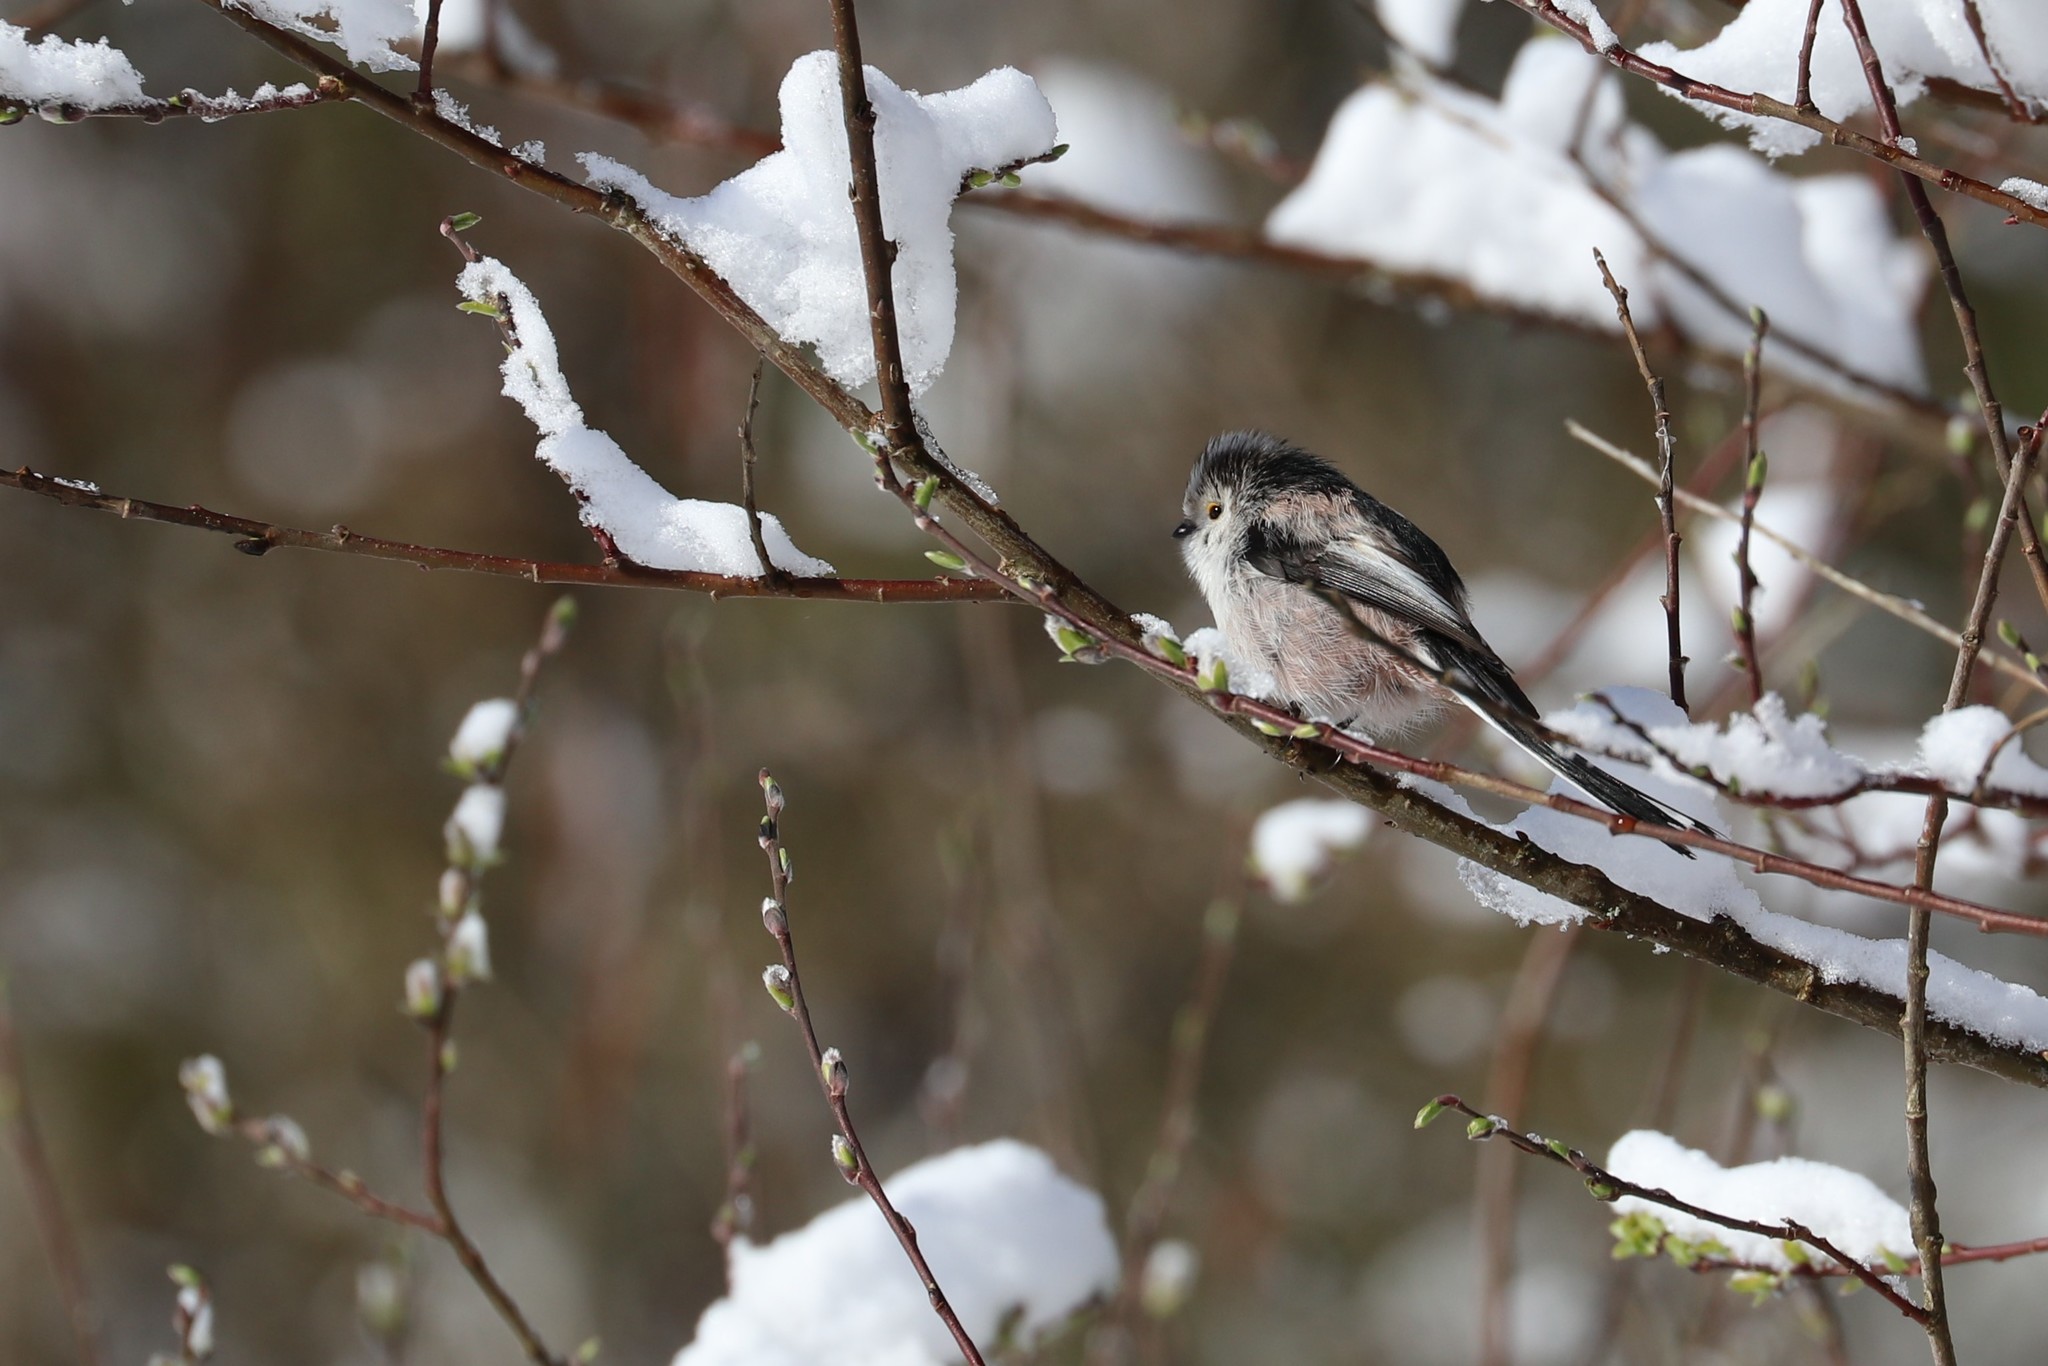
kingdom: Animalia
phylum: Chordata
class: Aves
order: Passeriformes
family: Aegithalidae
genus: Aegithalos
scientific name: Aegithalos caudatus
